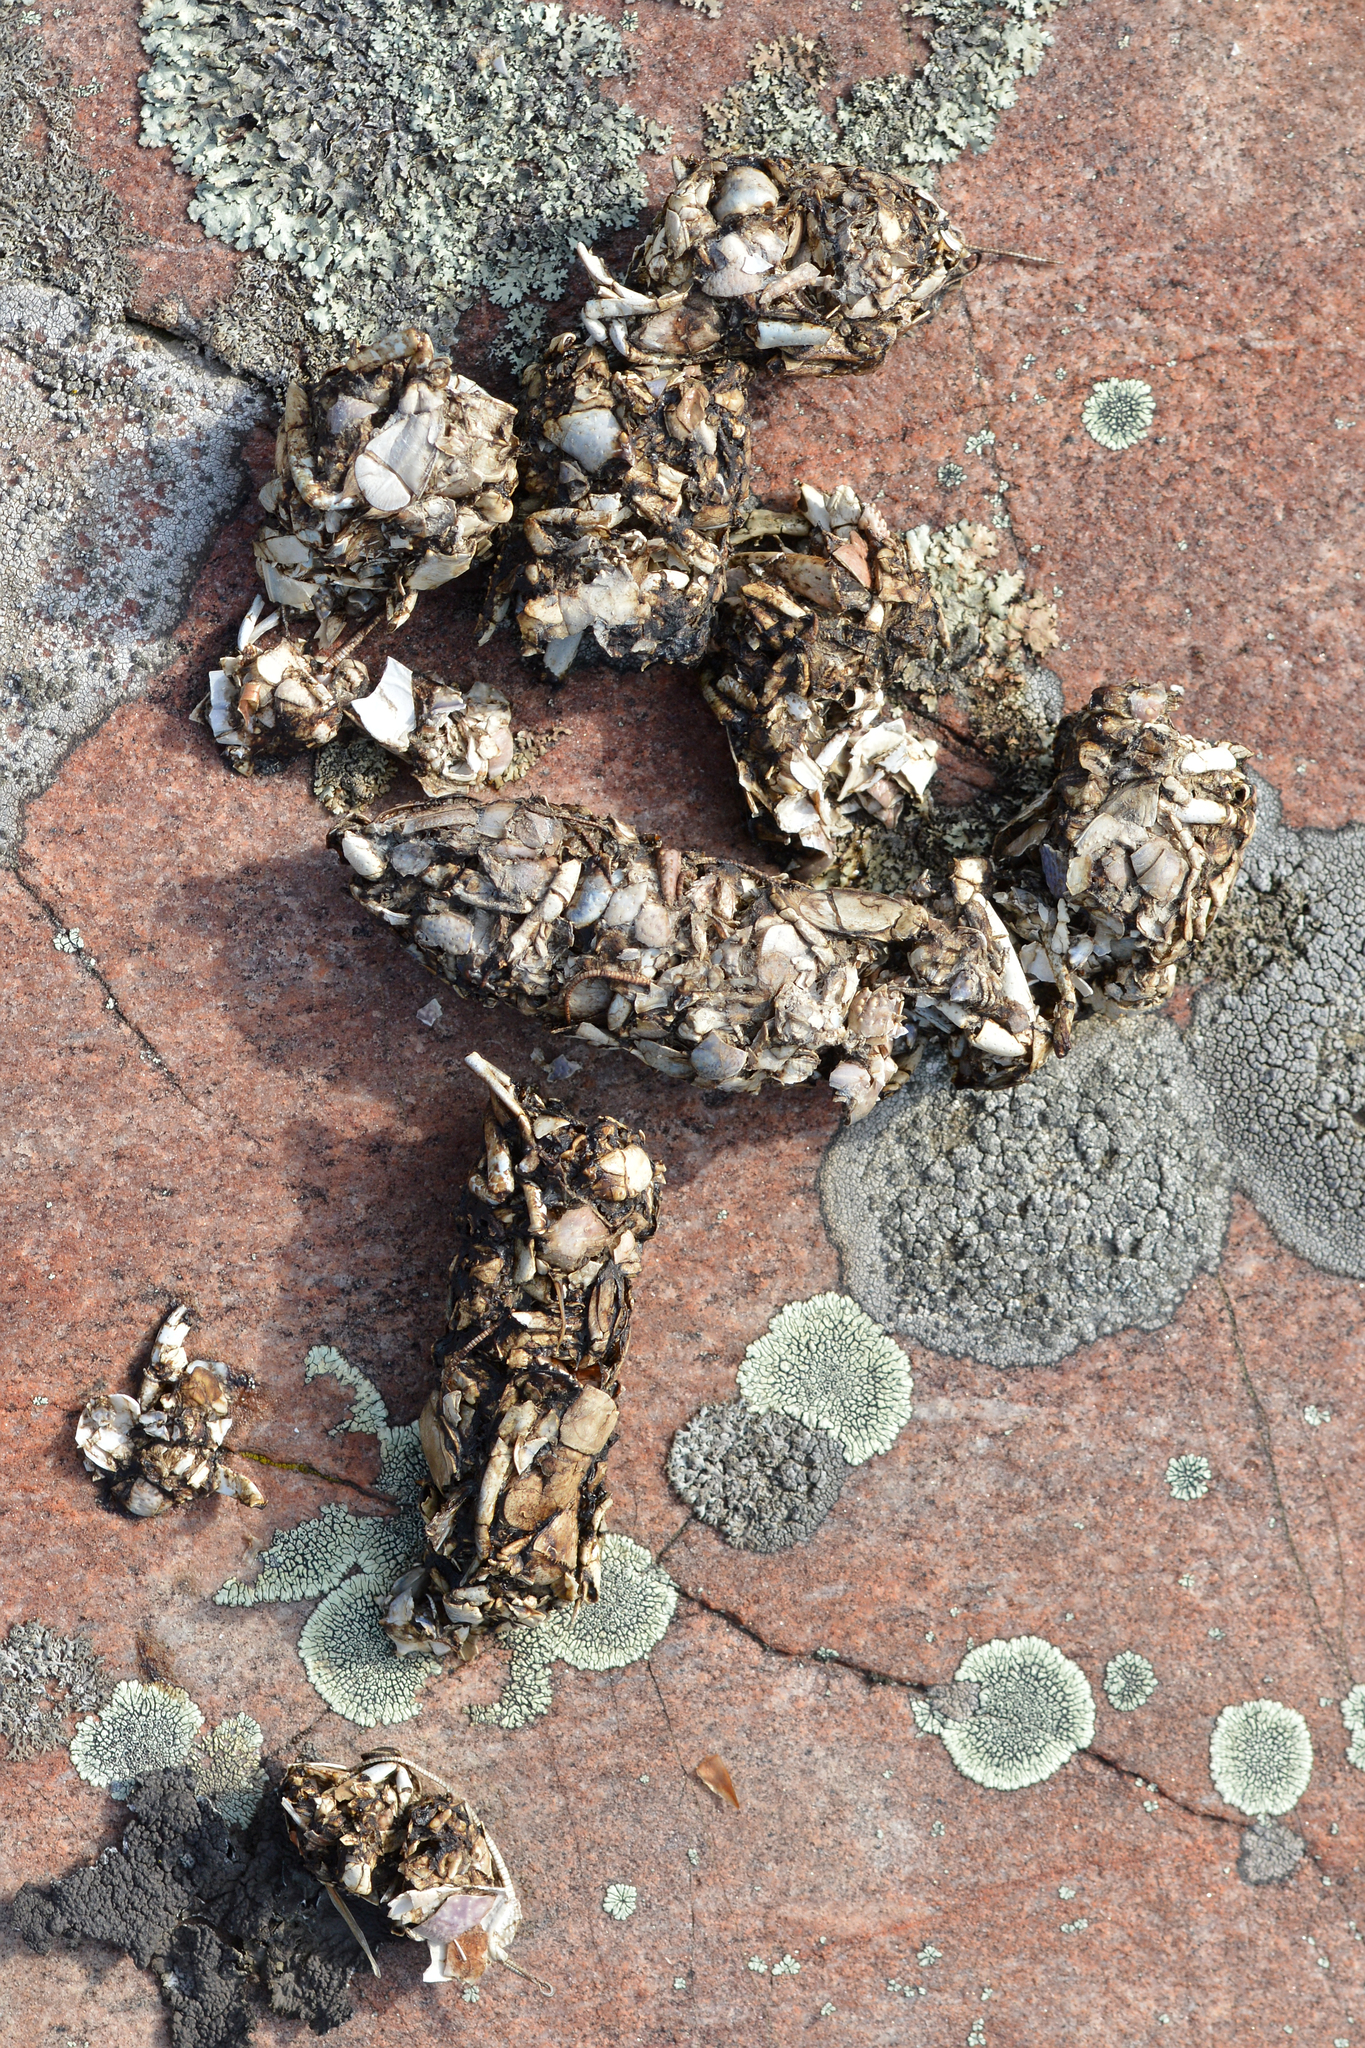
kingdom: Animalia
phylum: Chordata
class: Mammalia
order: Carnivora
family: Mustelidae
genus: Lontra
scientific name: Lontra canadensis
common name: North american river otter
